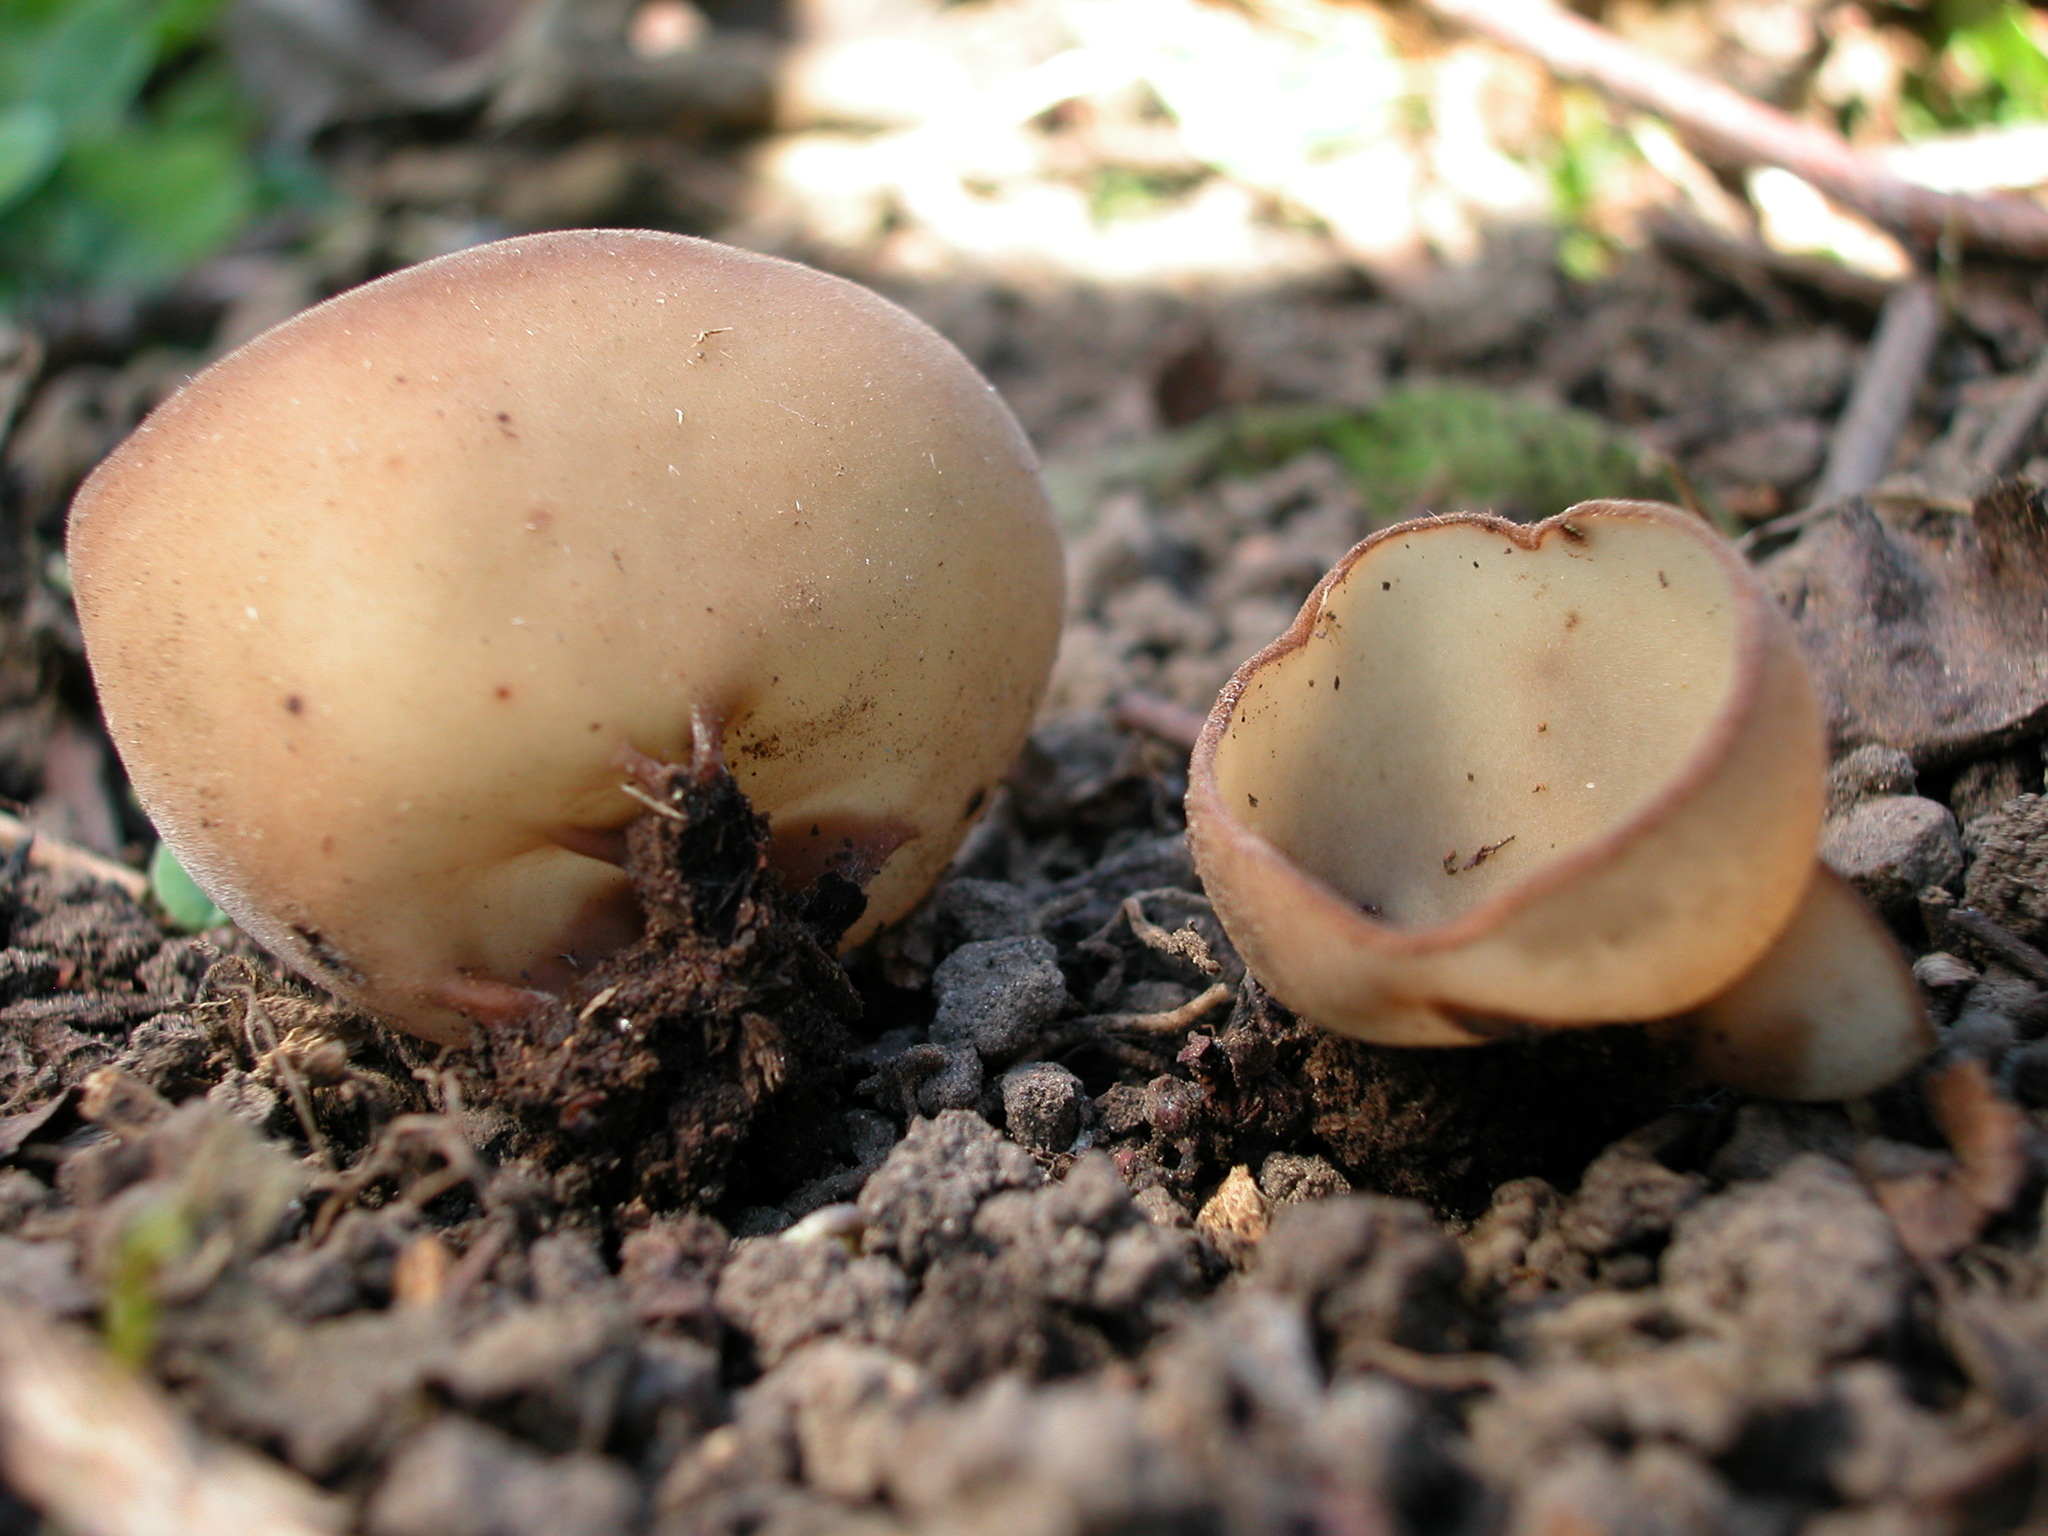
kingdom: Fungi
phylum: Ascomycota
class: Pezizomycetes
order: Pezizales
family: Pyronemataceae
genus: Jafnea
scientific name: Jafnea fusicarpa
